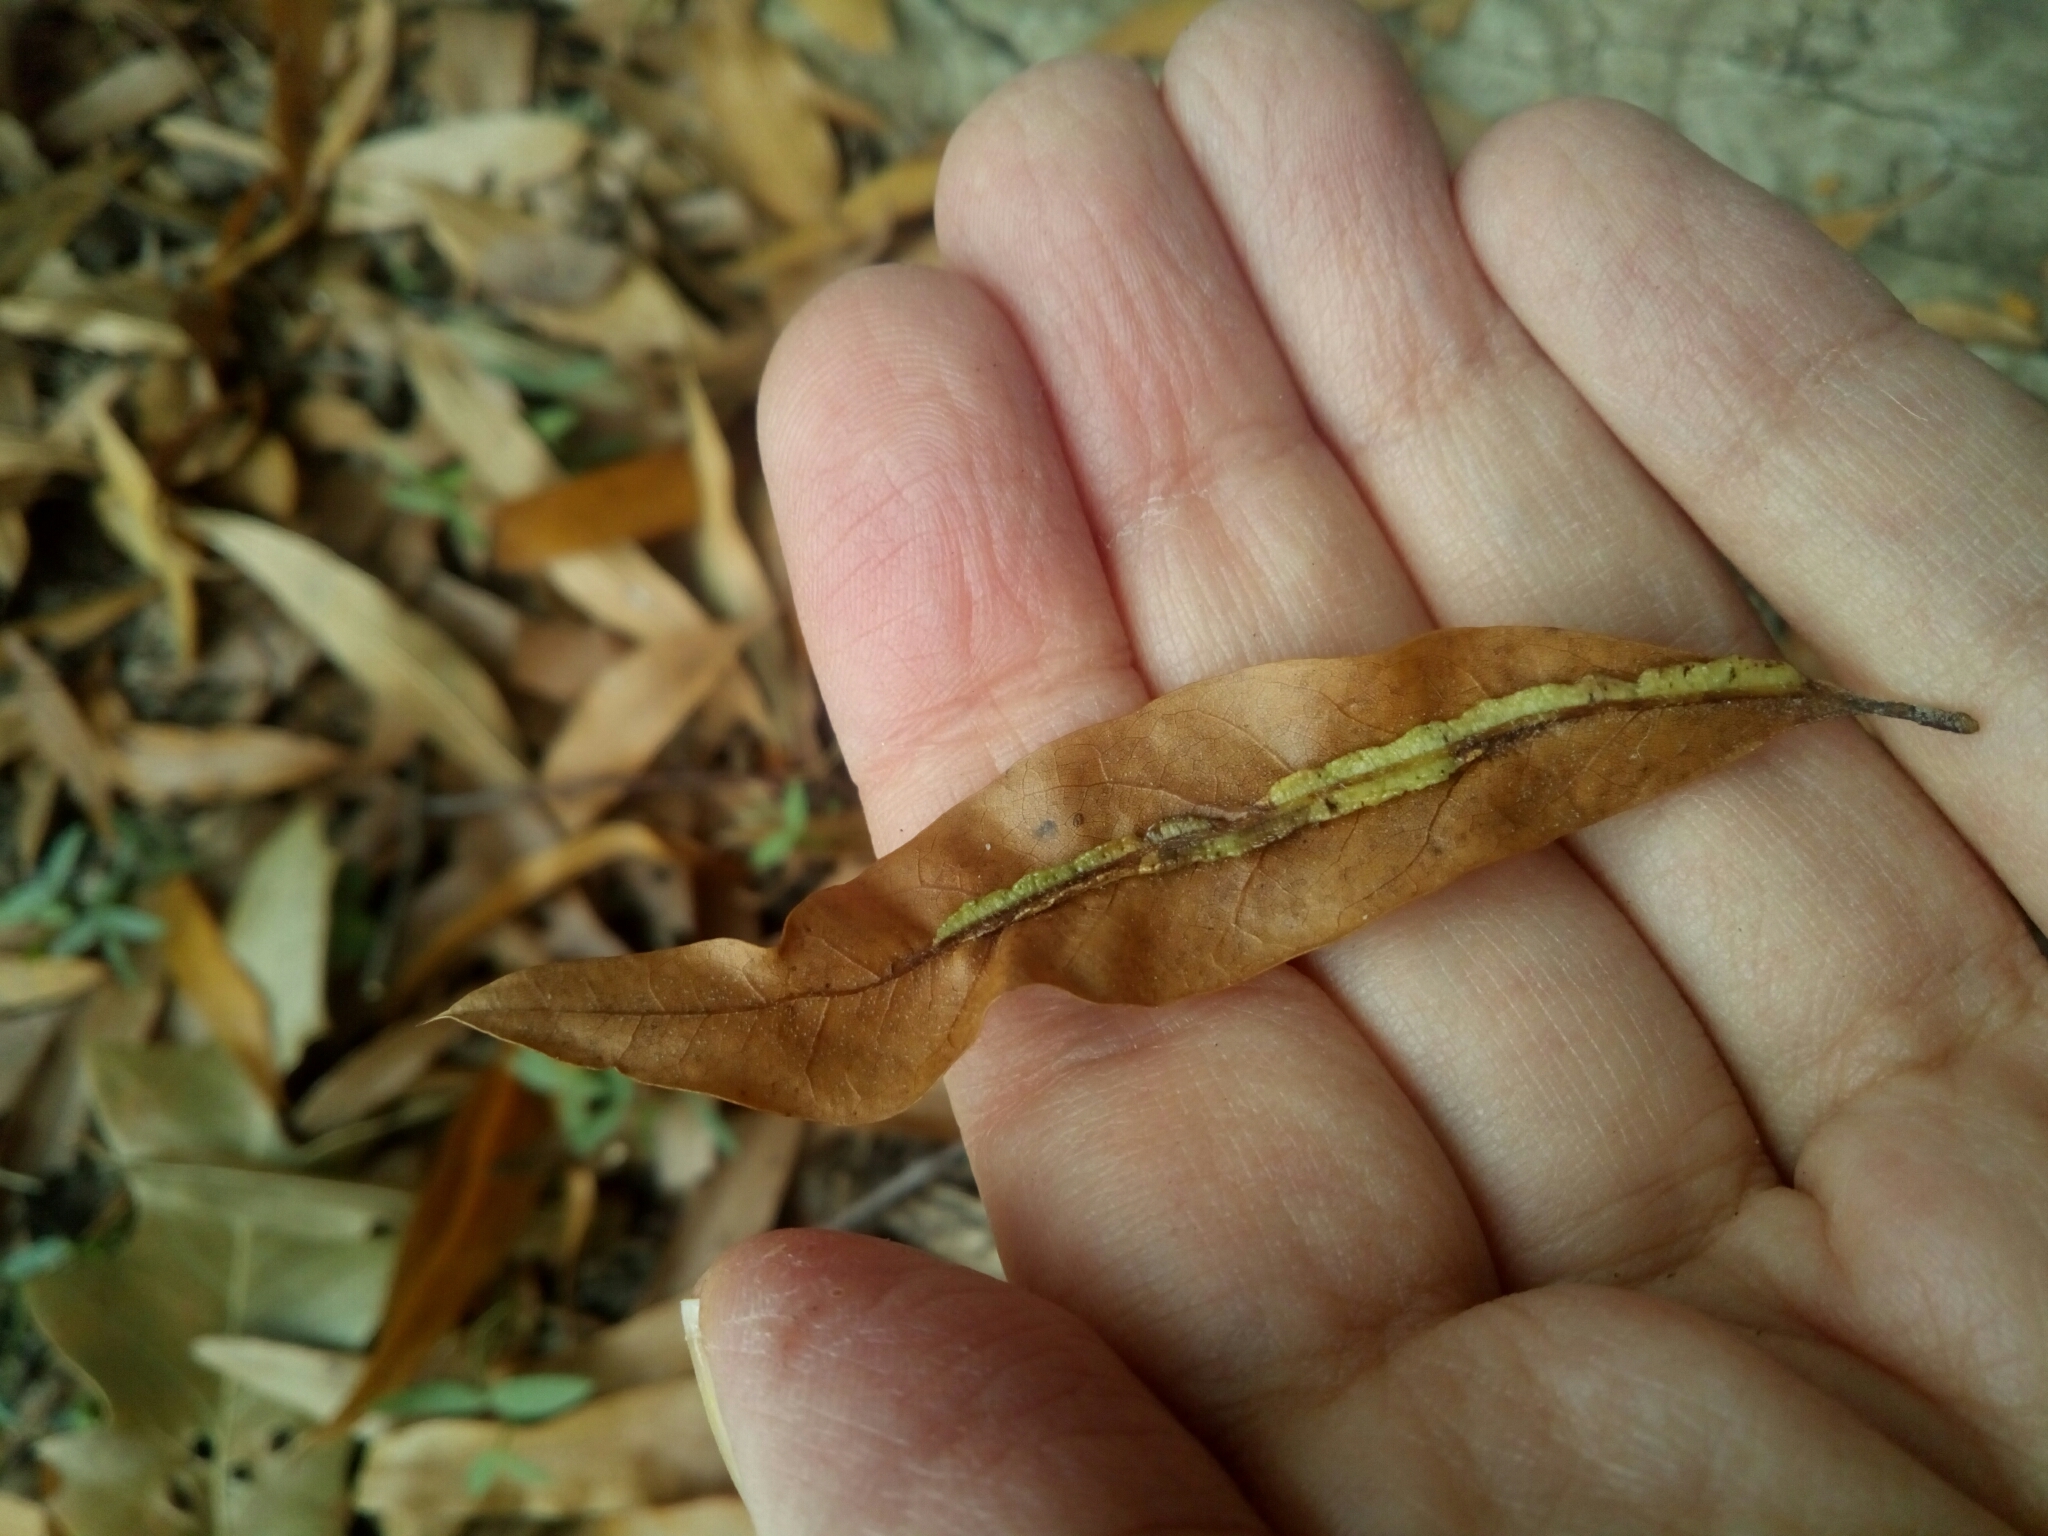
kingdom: Animalia
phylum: Arthropoda
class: Insecta
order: Diptera
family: Cecidomyiidae
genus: Macrodiplosis
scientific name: Macrodiplosis q-orucum
